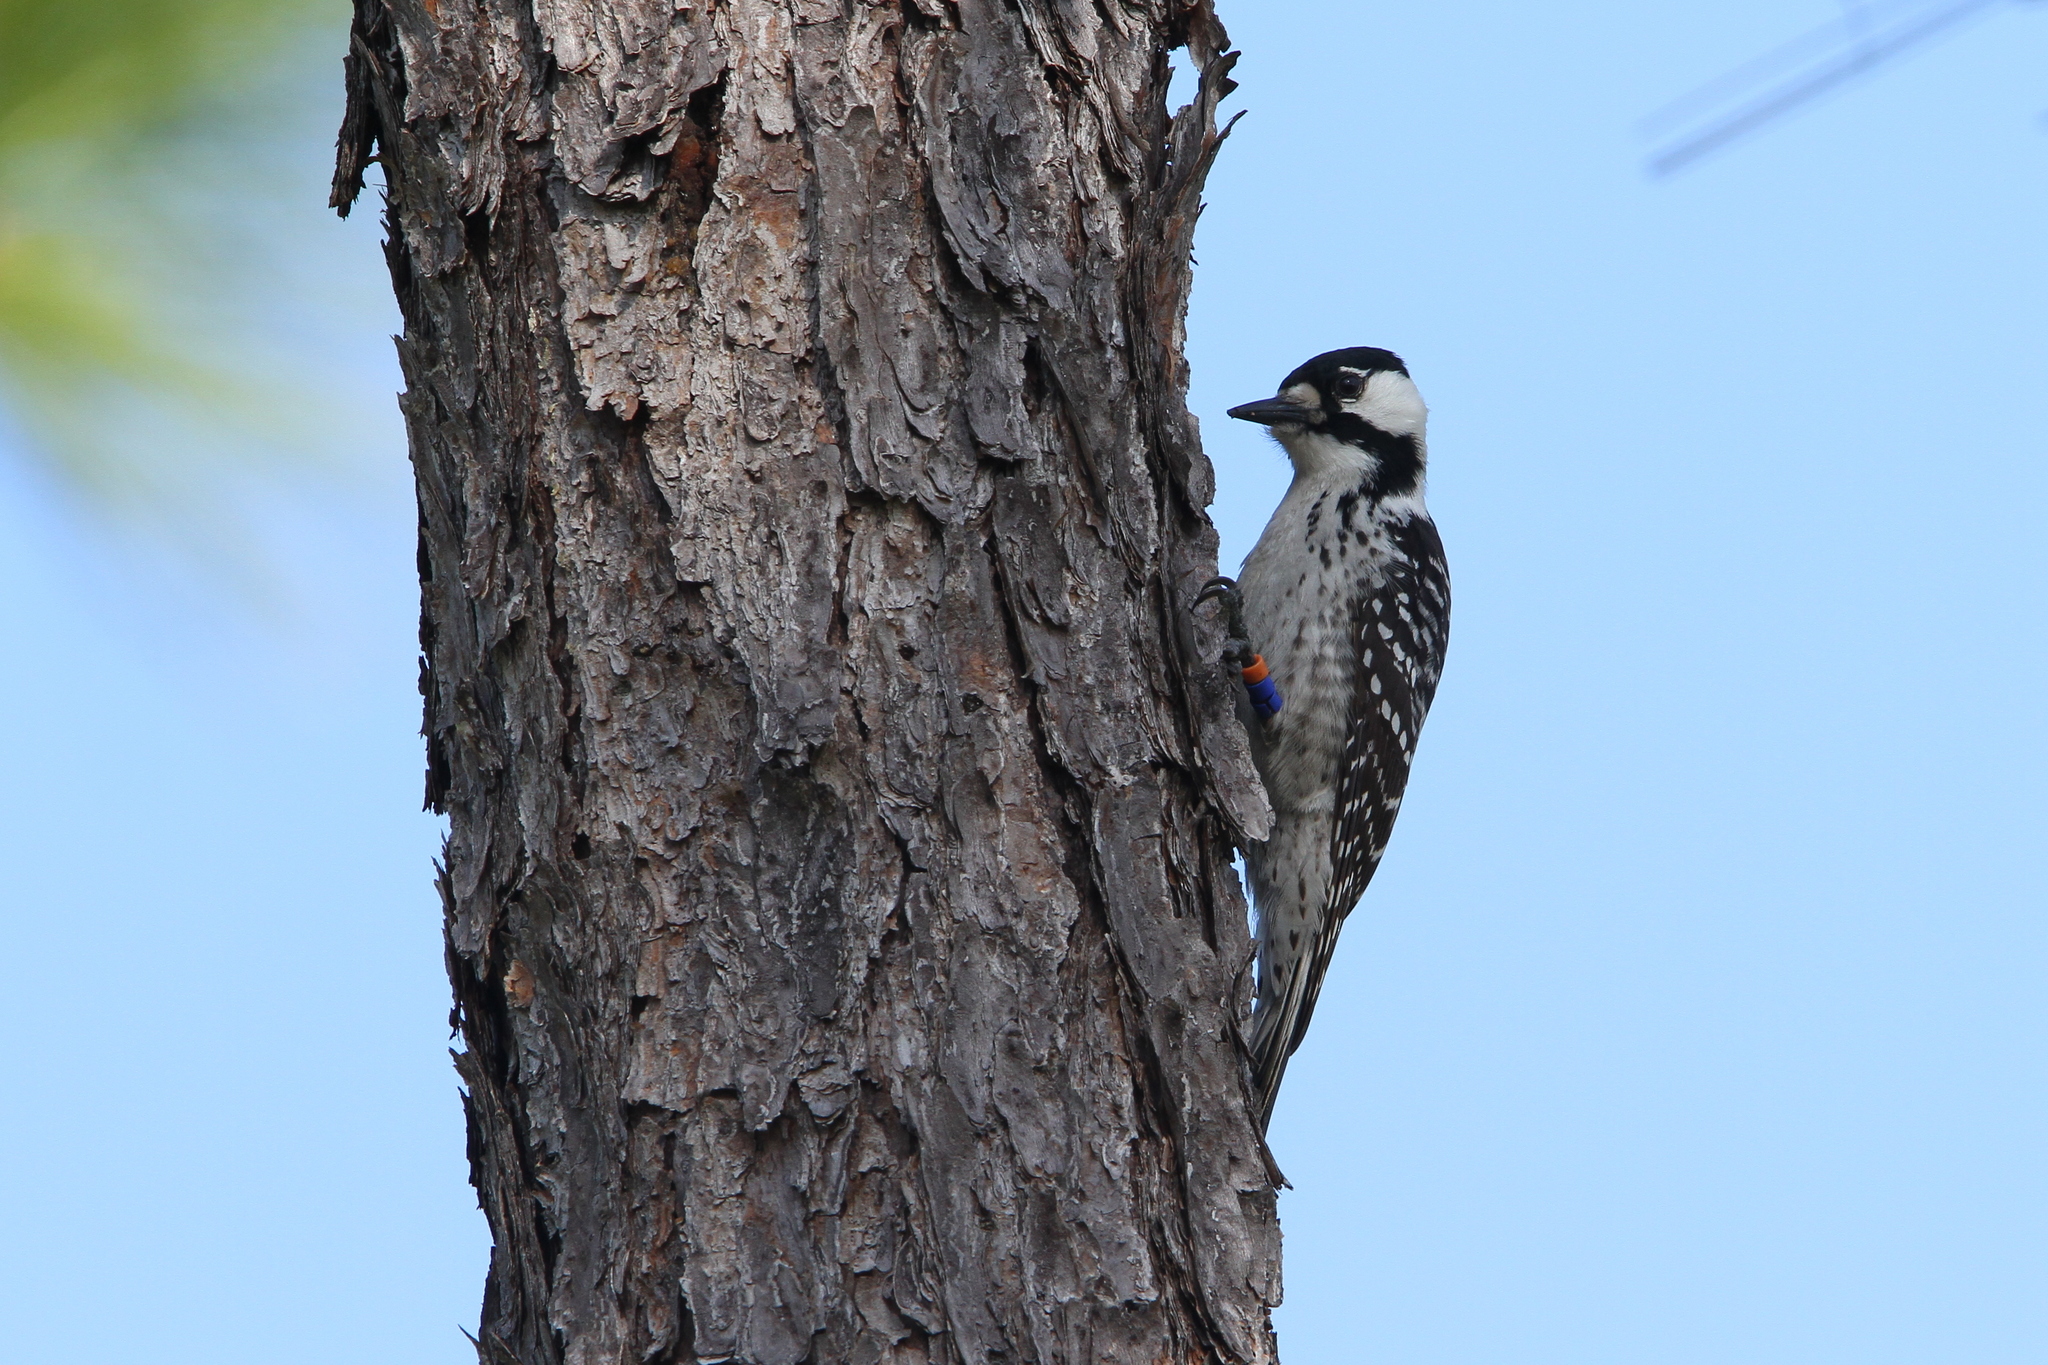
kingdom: Animalia
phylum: Chordata
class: Aves
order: Piciformes
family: Picidae
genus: Leuconotopicus
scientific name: Leuconotopicus borealis
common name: Red-cockaded woodpecker
